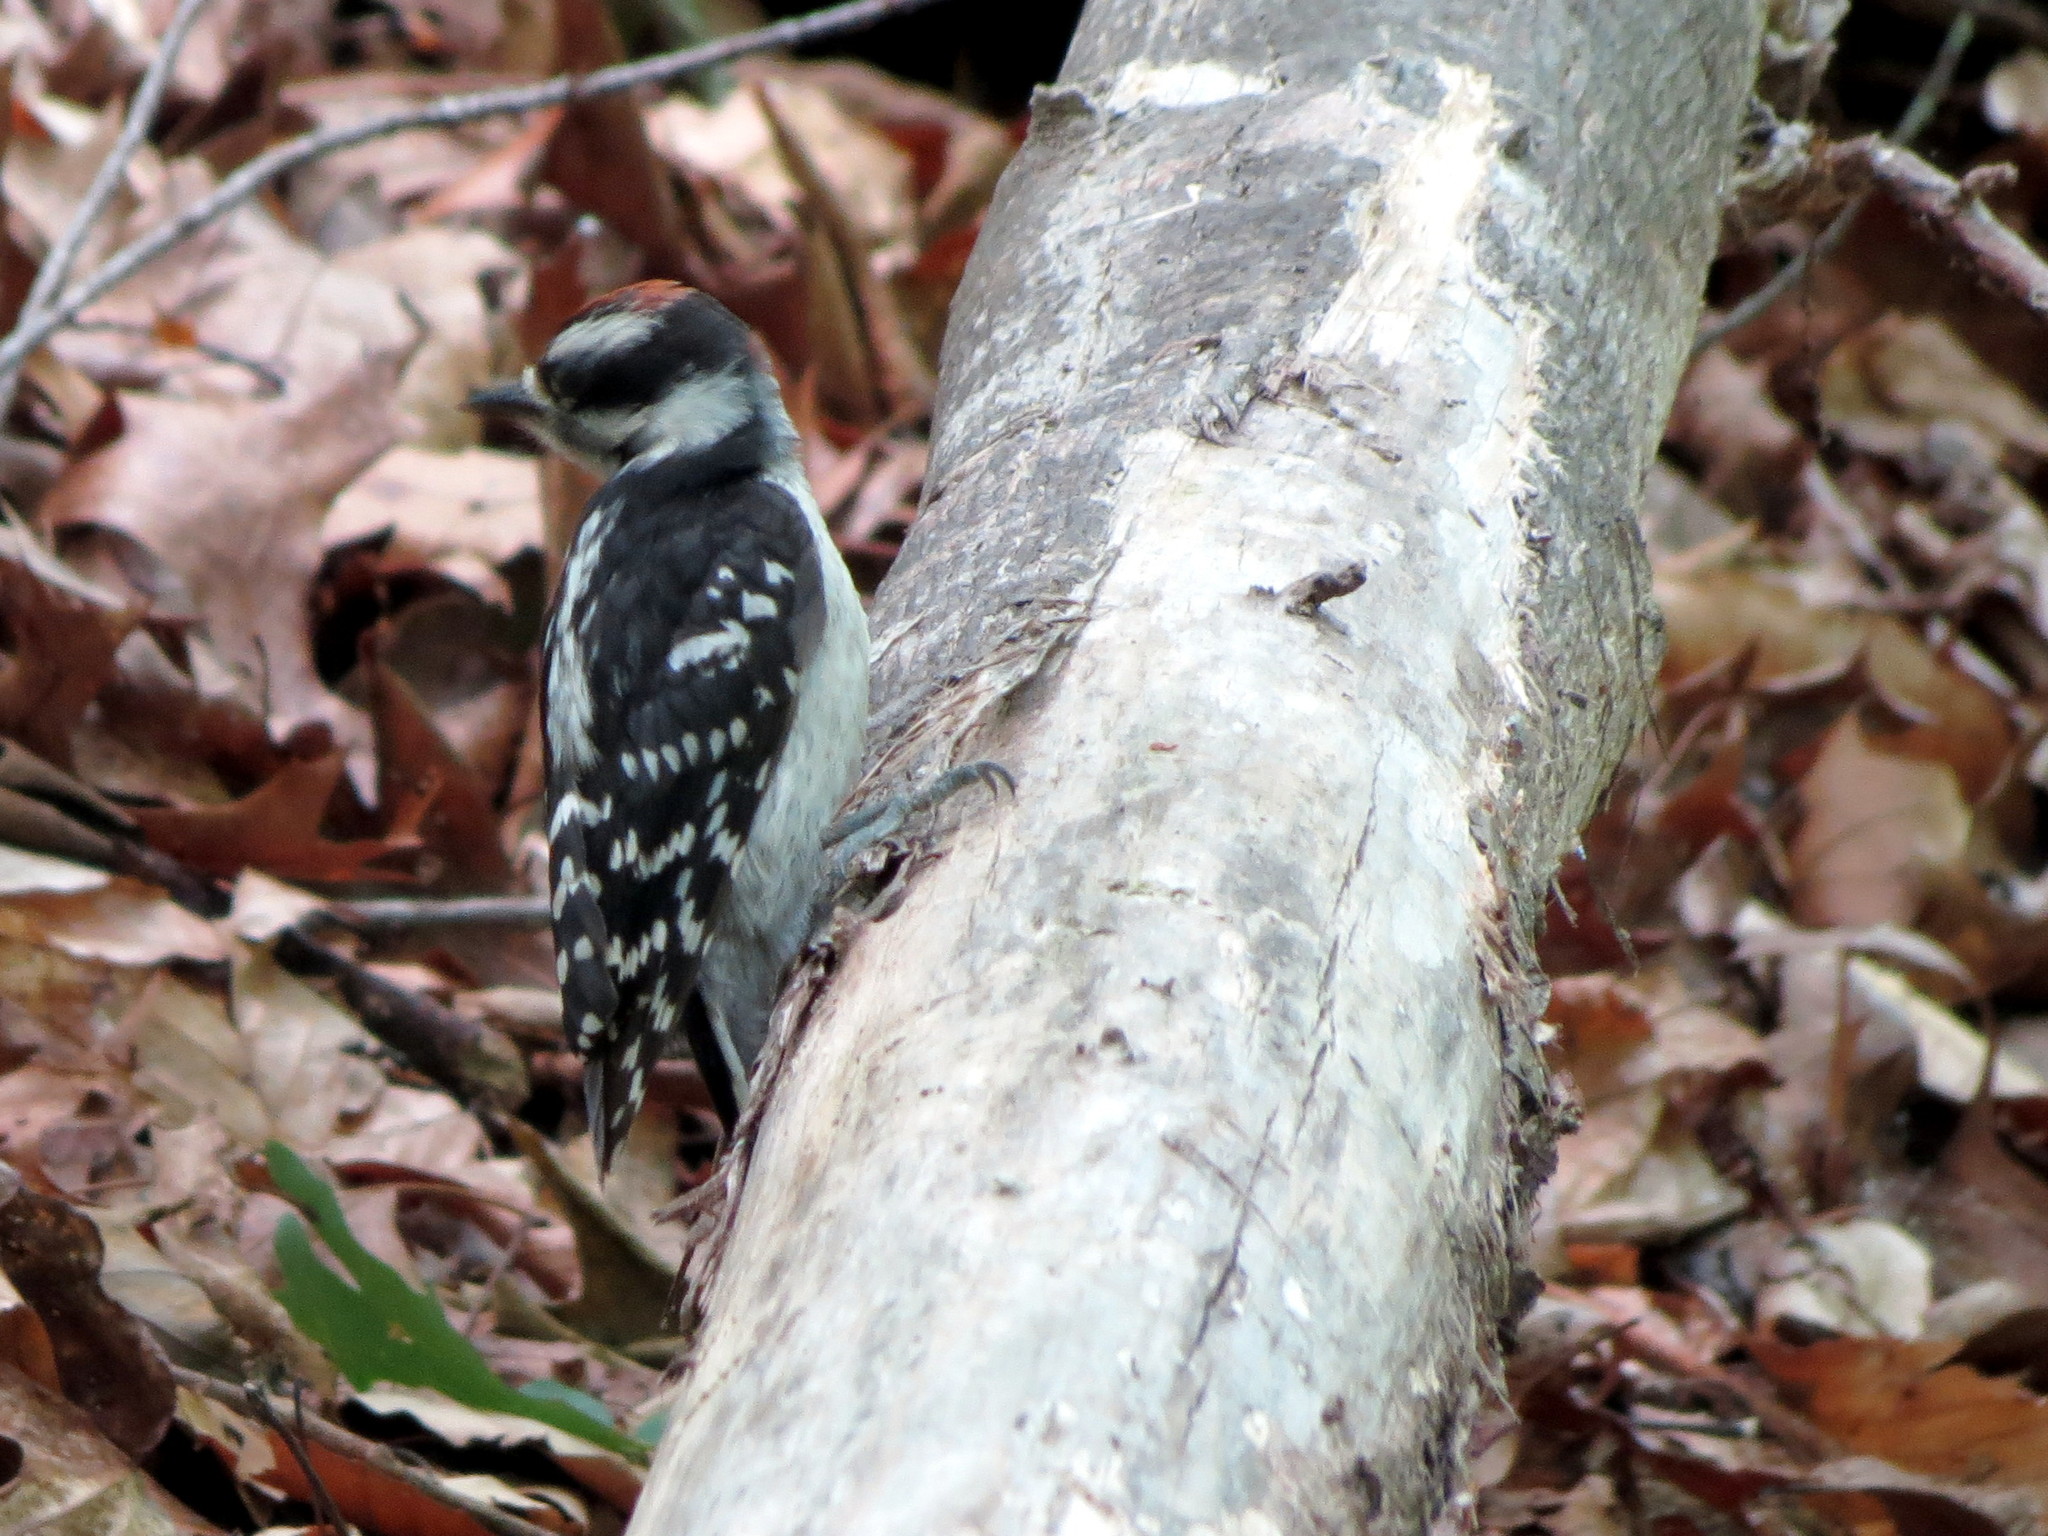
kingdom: Animalia
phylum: Chordata
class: Aves
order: Piciformes
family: Picidae
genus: Dryobates
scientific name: Dryobates pubescens
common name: Downy woodpecker
